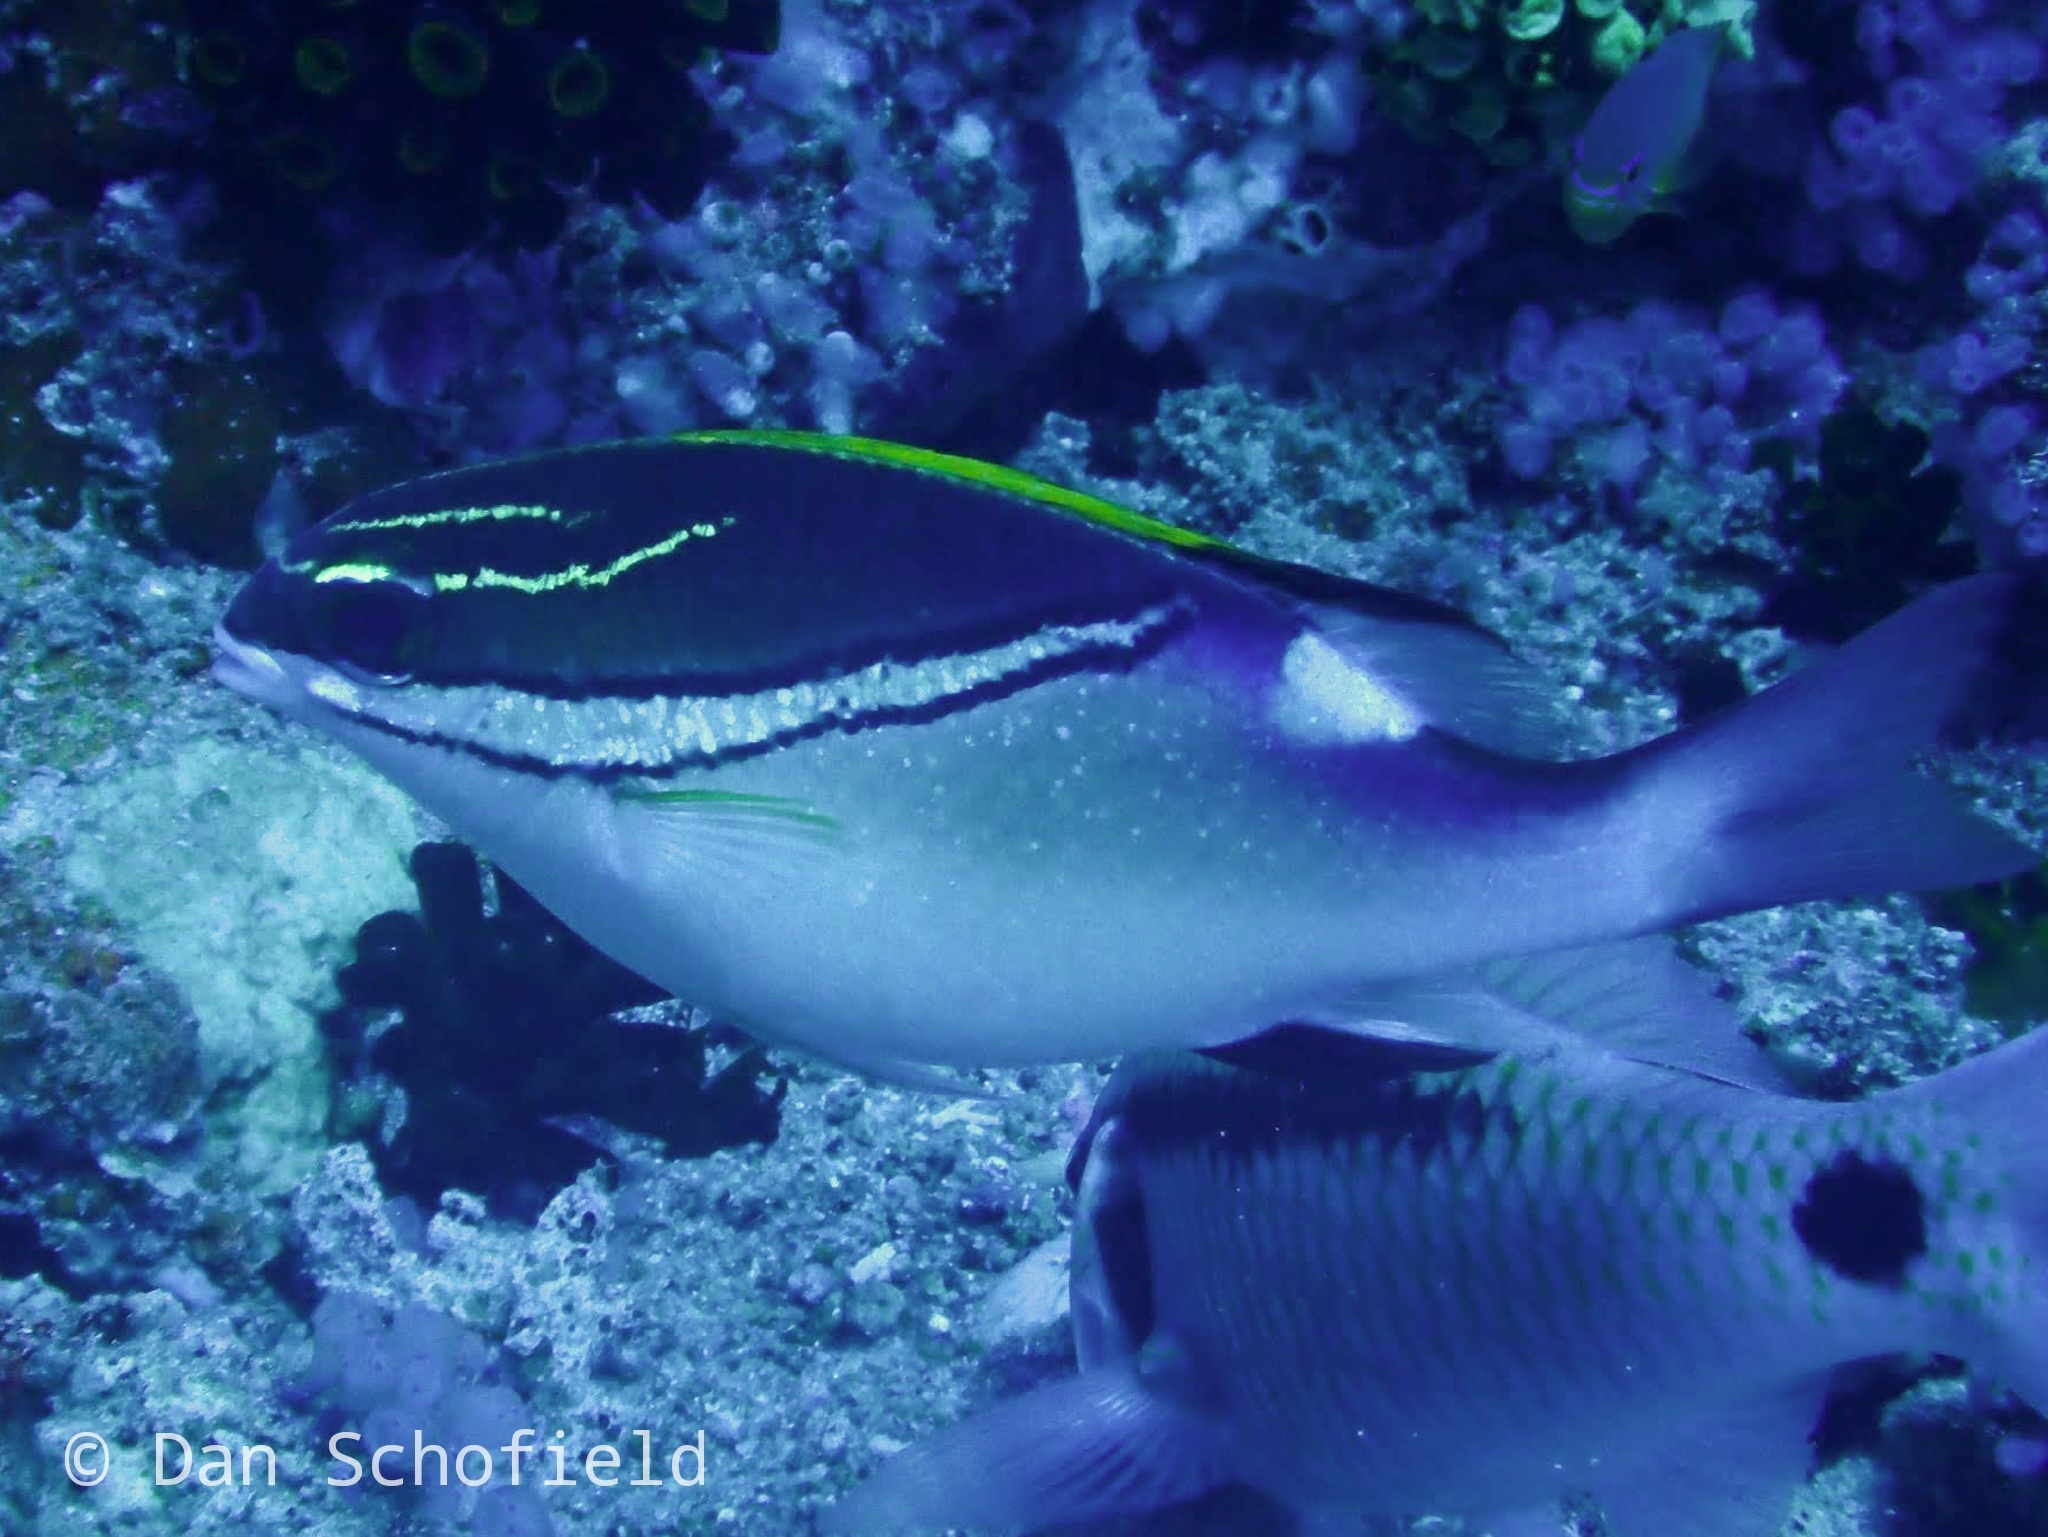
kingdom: Animalia
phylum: Chordata
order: Perciformes
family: Nemipteridae
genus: Scolopsis
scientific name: Scolopsis bilineata
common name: Two-lined monocle bream
